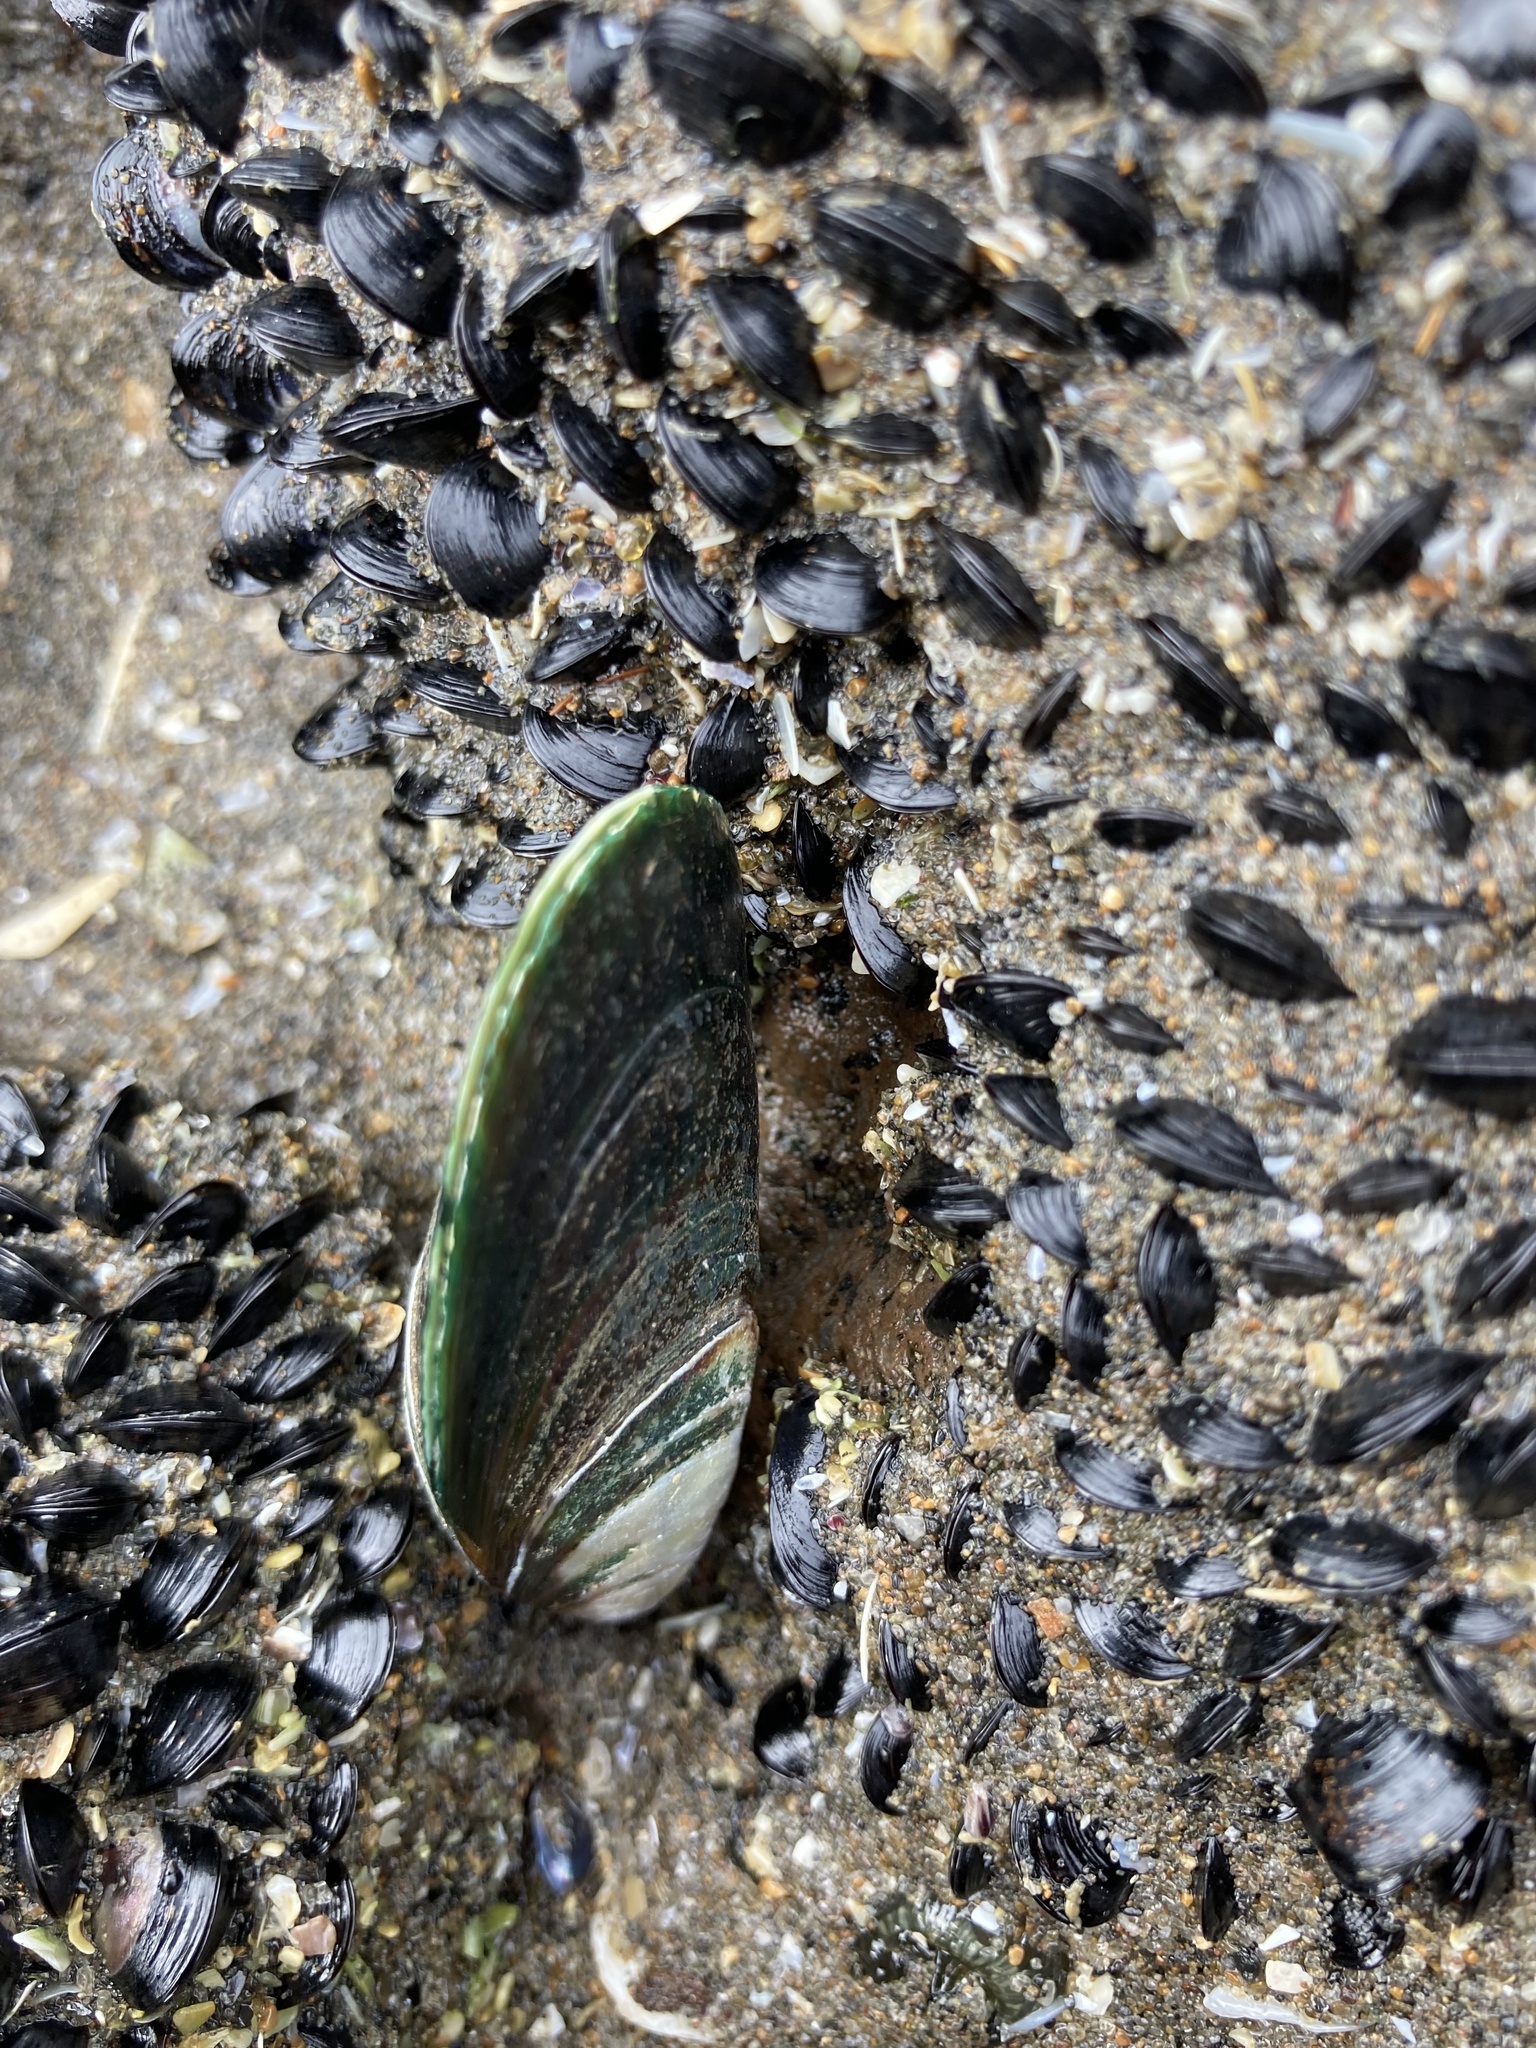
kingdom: Animalia
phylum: Mollusca
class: Bivalvia
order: Mytilida
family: Mytilidae
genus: Perna
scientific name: Perna canaliculus
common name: New zealand greenshelltm
